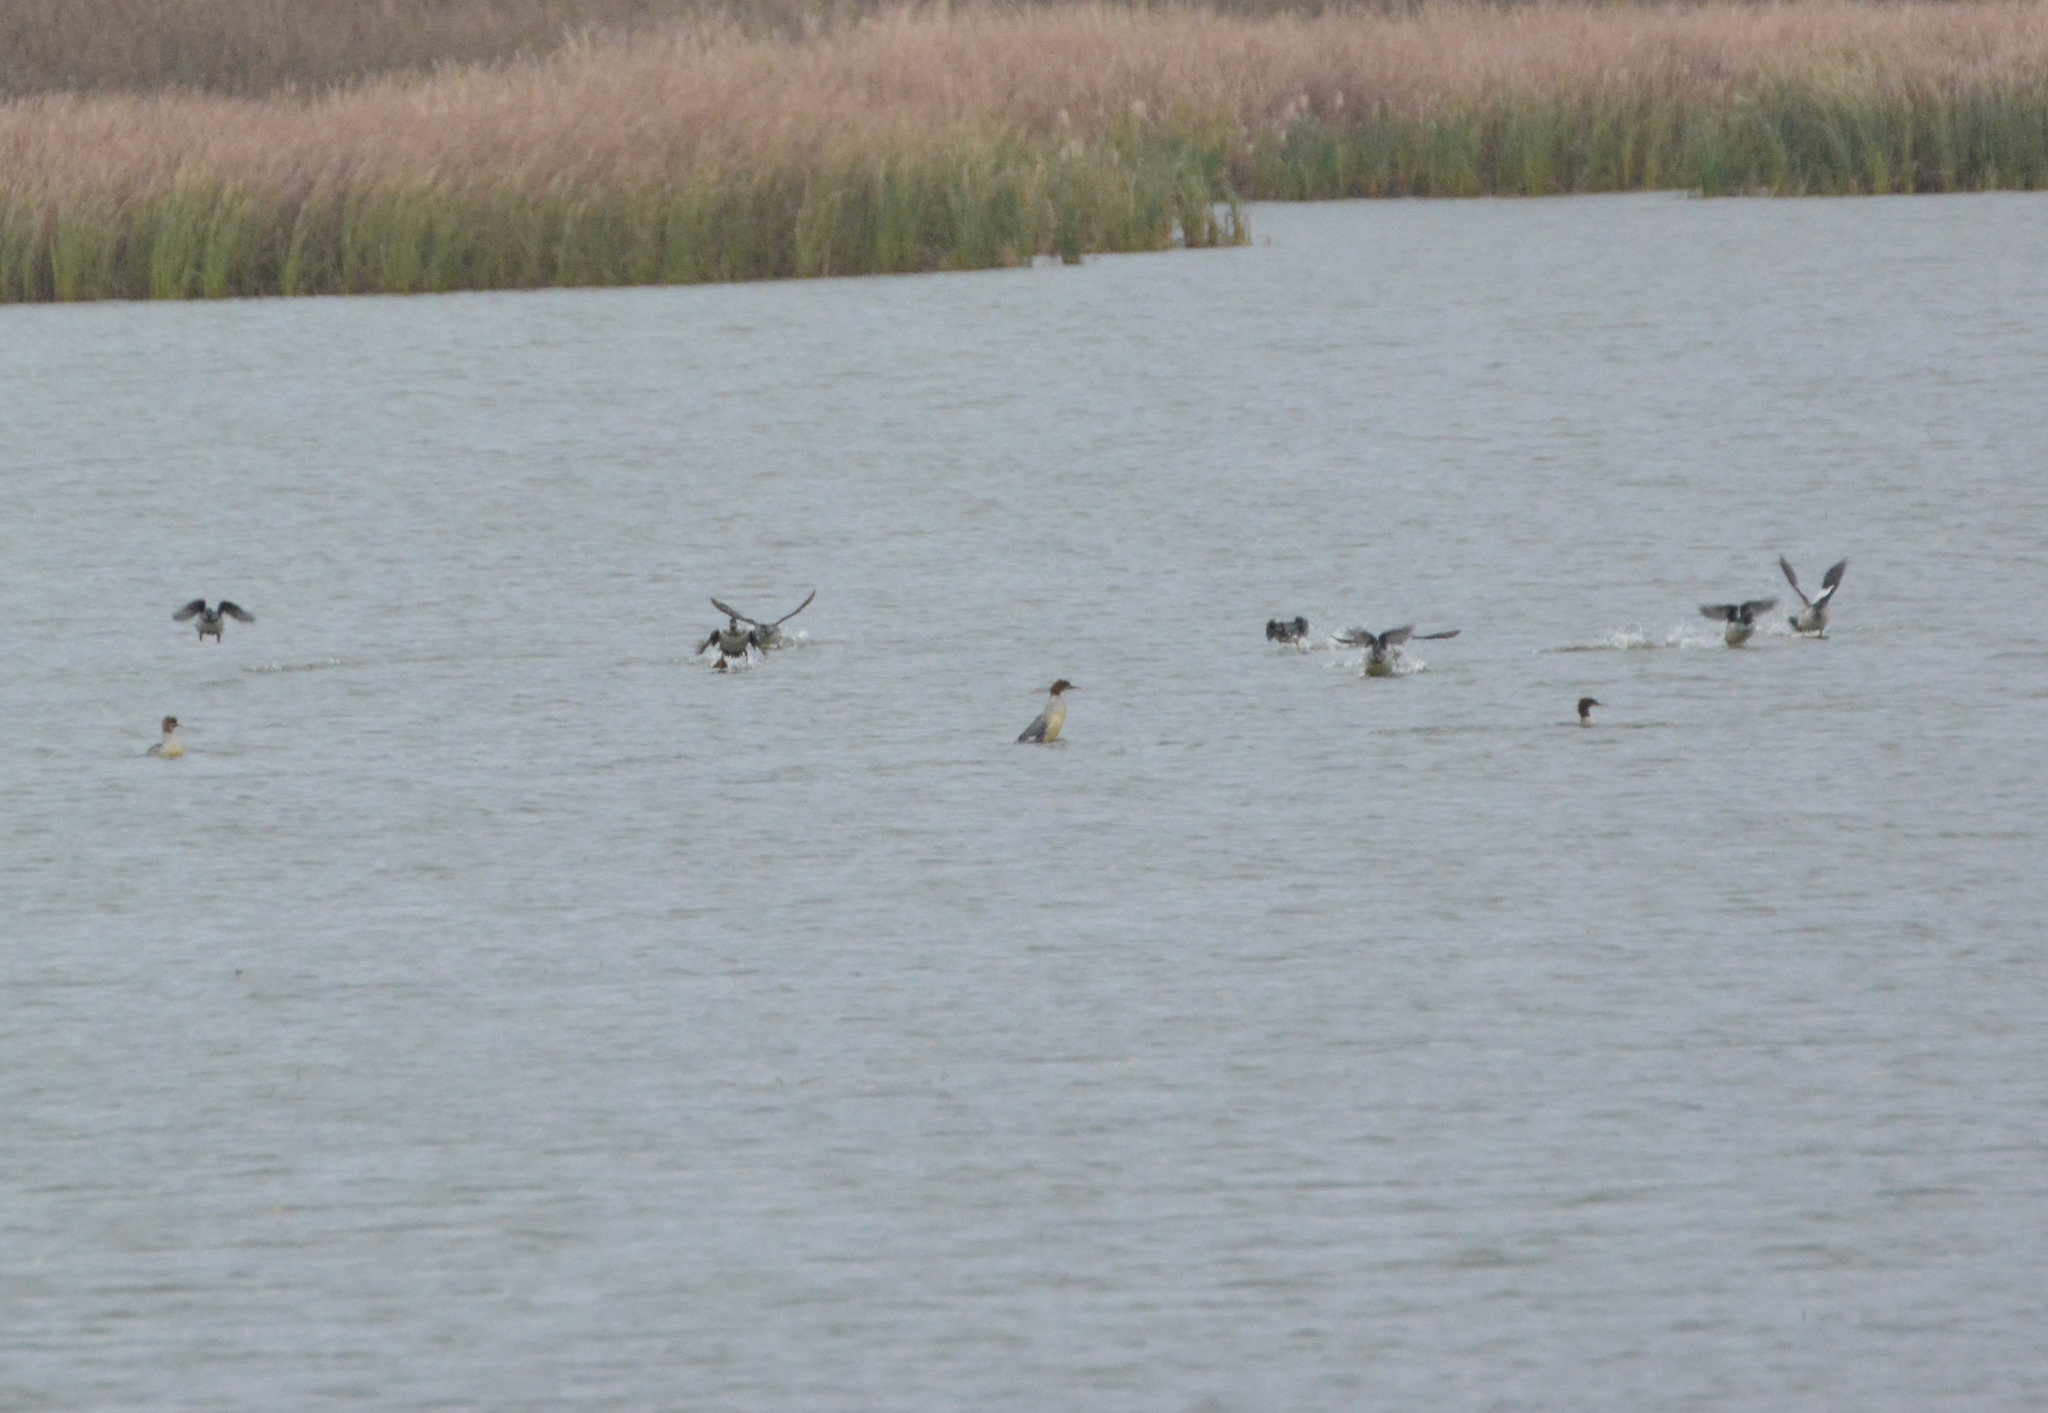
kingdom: Animalia
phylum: Chordata
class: Aves
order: Anseriformes
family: Anatidae
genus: Mergus
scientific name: Mergus merganser
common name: Common merganser
